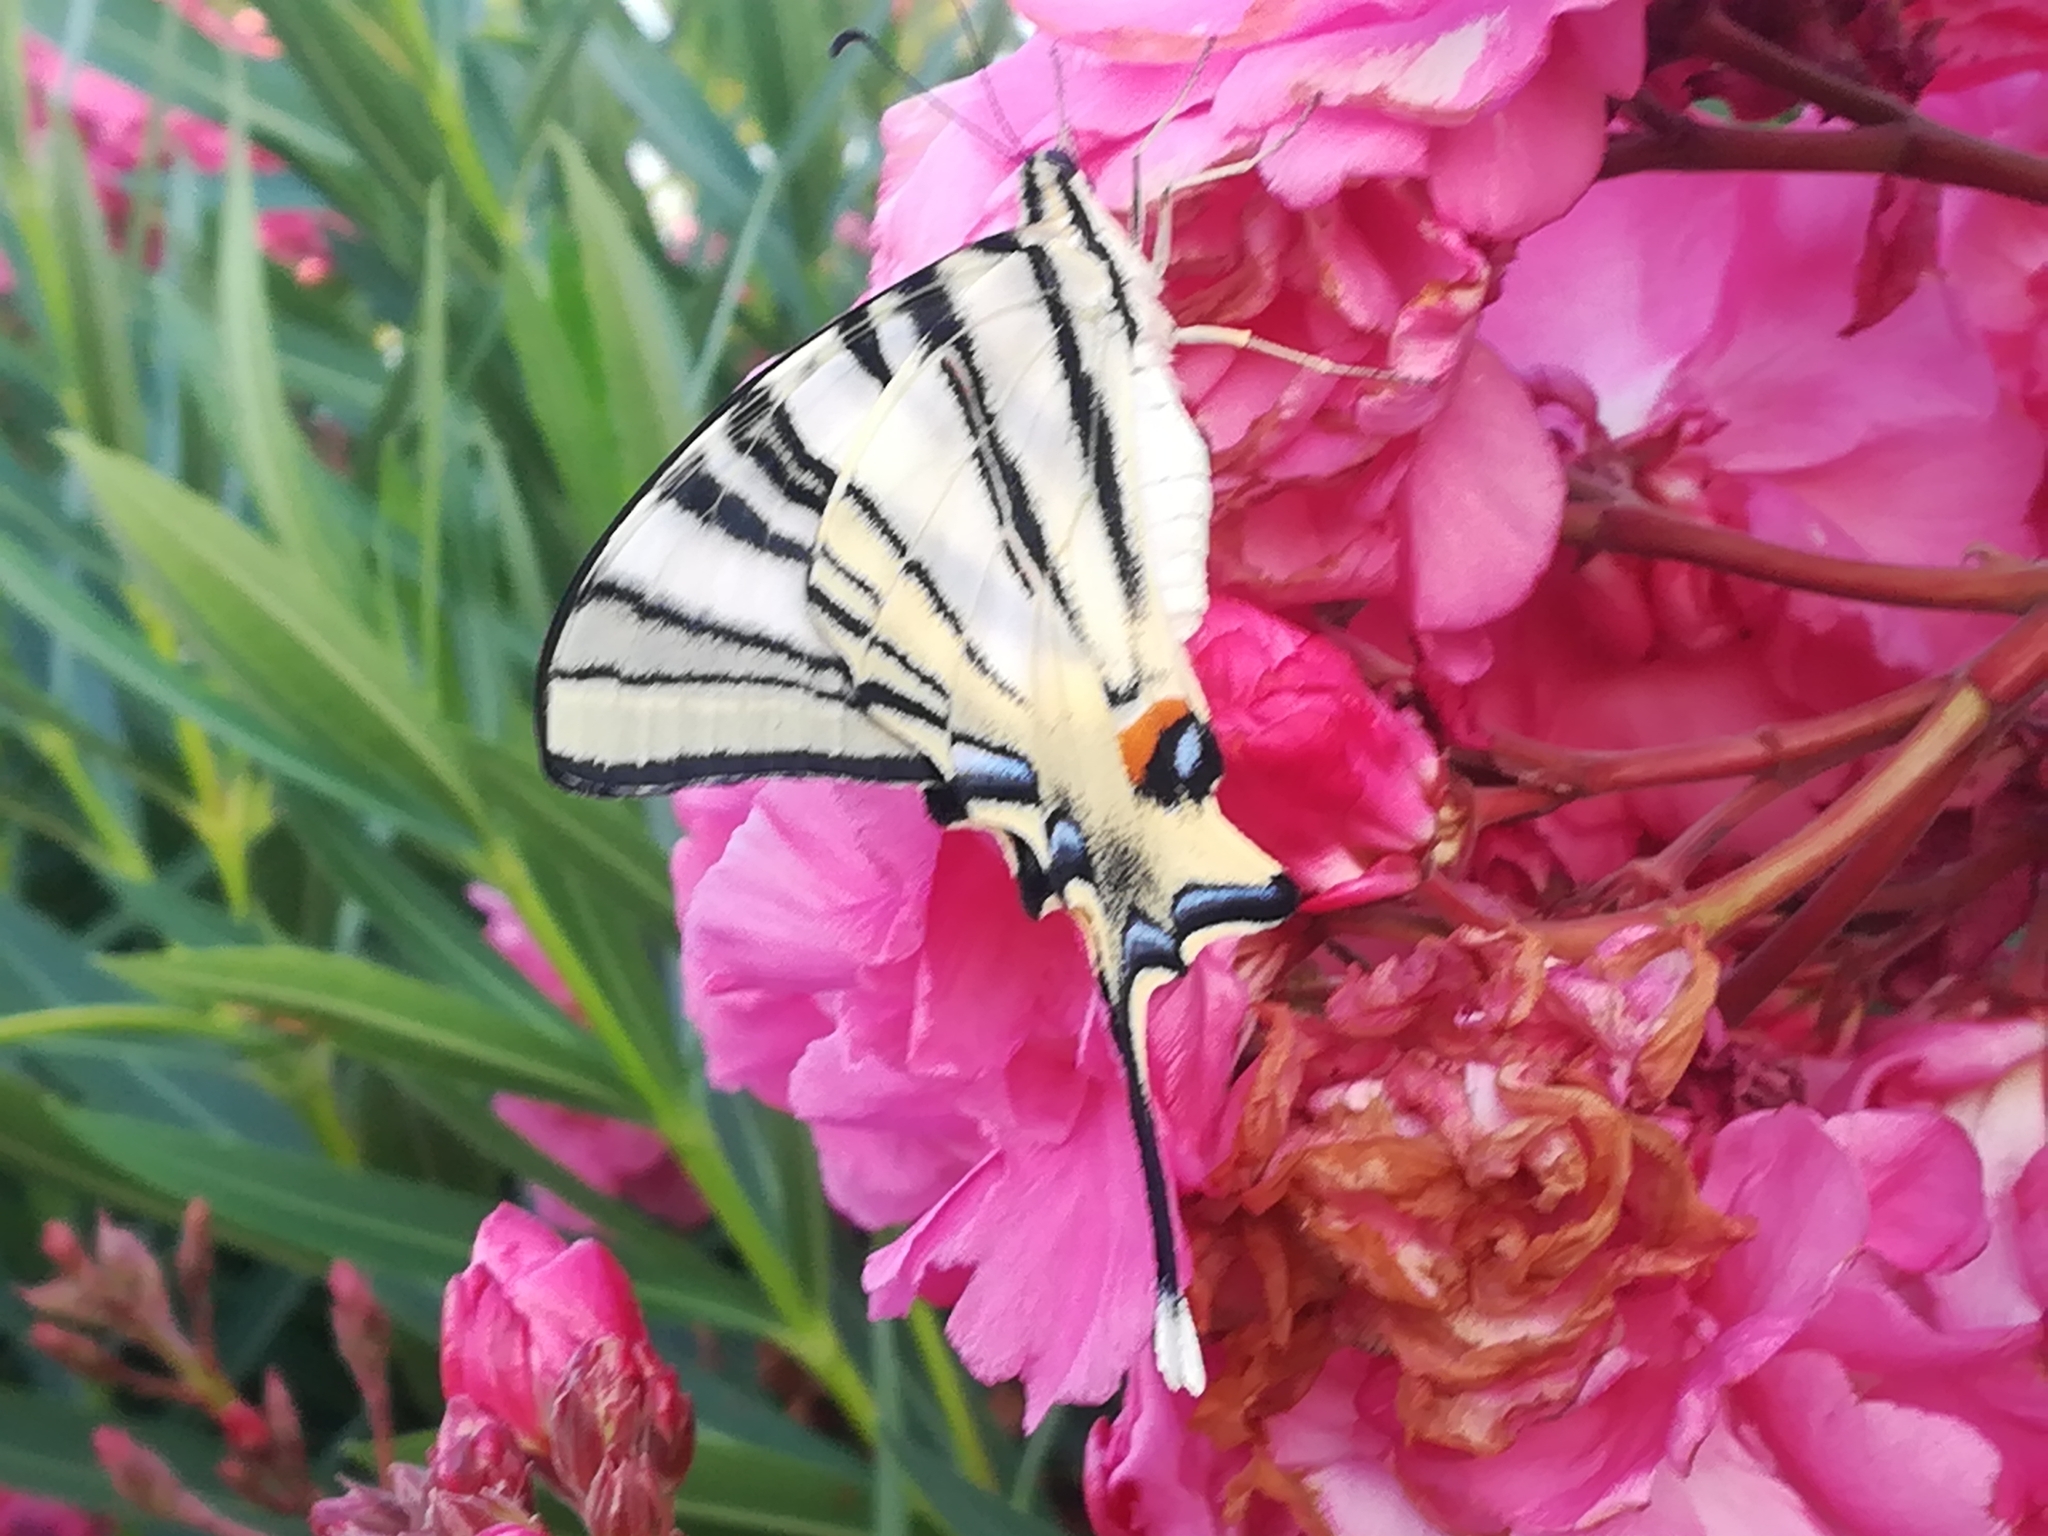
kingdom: Animalia
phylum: Arthropoda
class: Insecta
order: Lepidoptera
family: Papilionidae
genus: Iphiclides
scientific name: Iphiclides podalirius
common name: Scarce swallowtail
